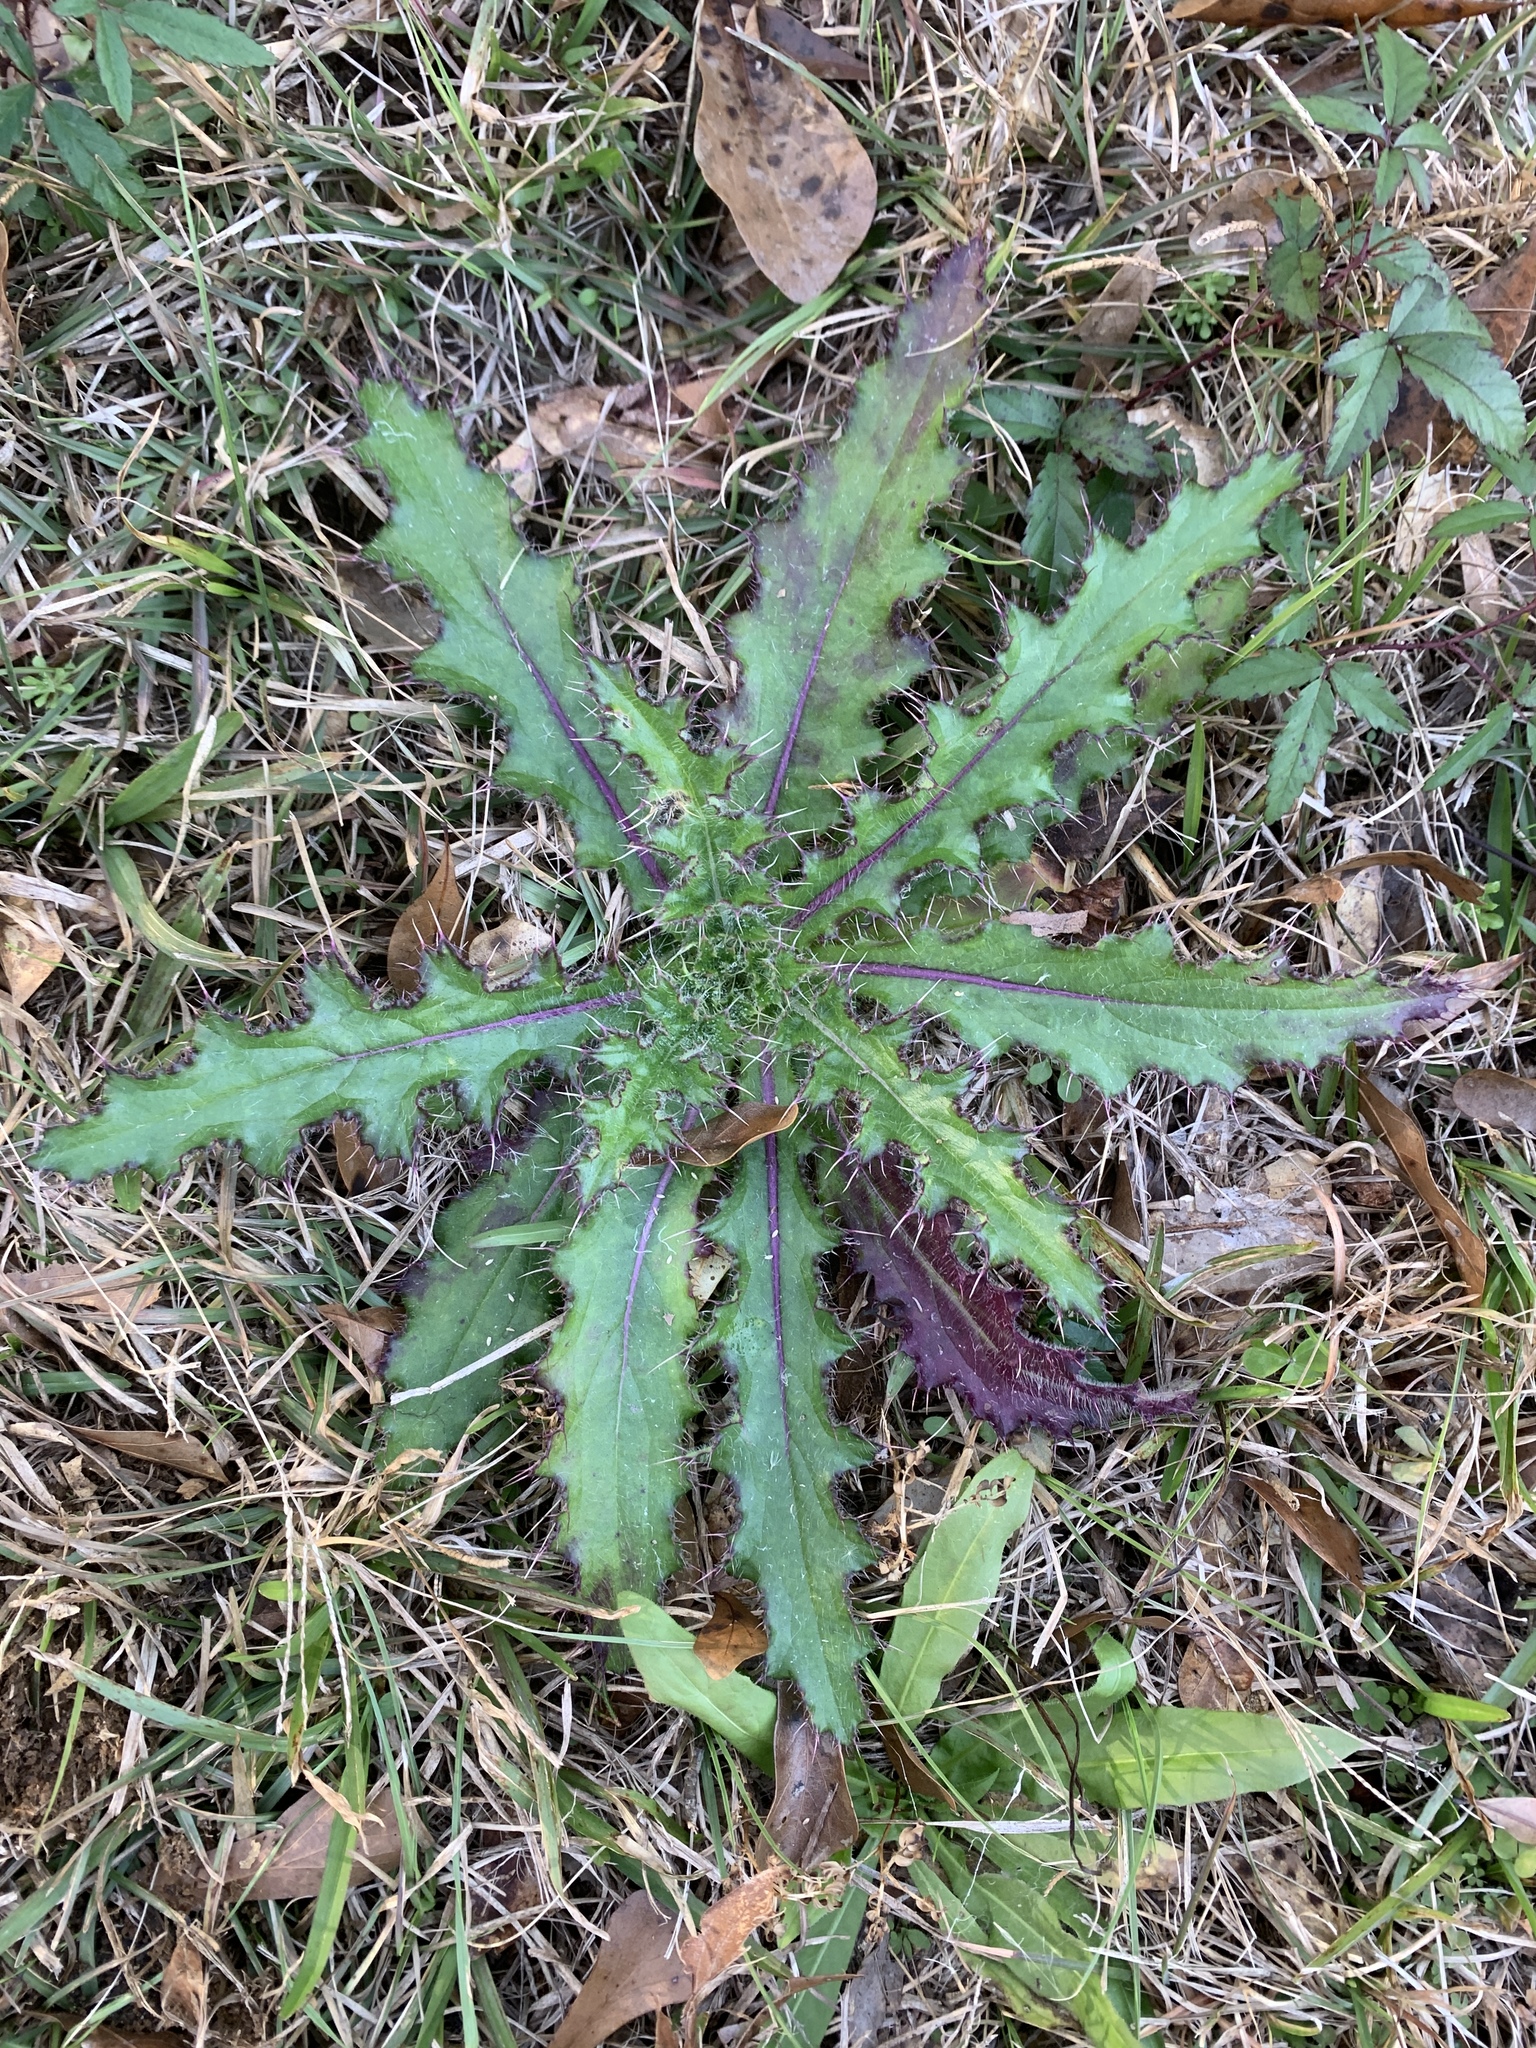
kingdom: Plantae
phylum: Tracheophyta
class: Magnoliopsida
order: Asterales
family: Asteraceae
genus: Cirsium
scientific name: Cirsium horridulum
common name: Bristly thistle
